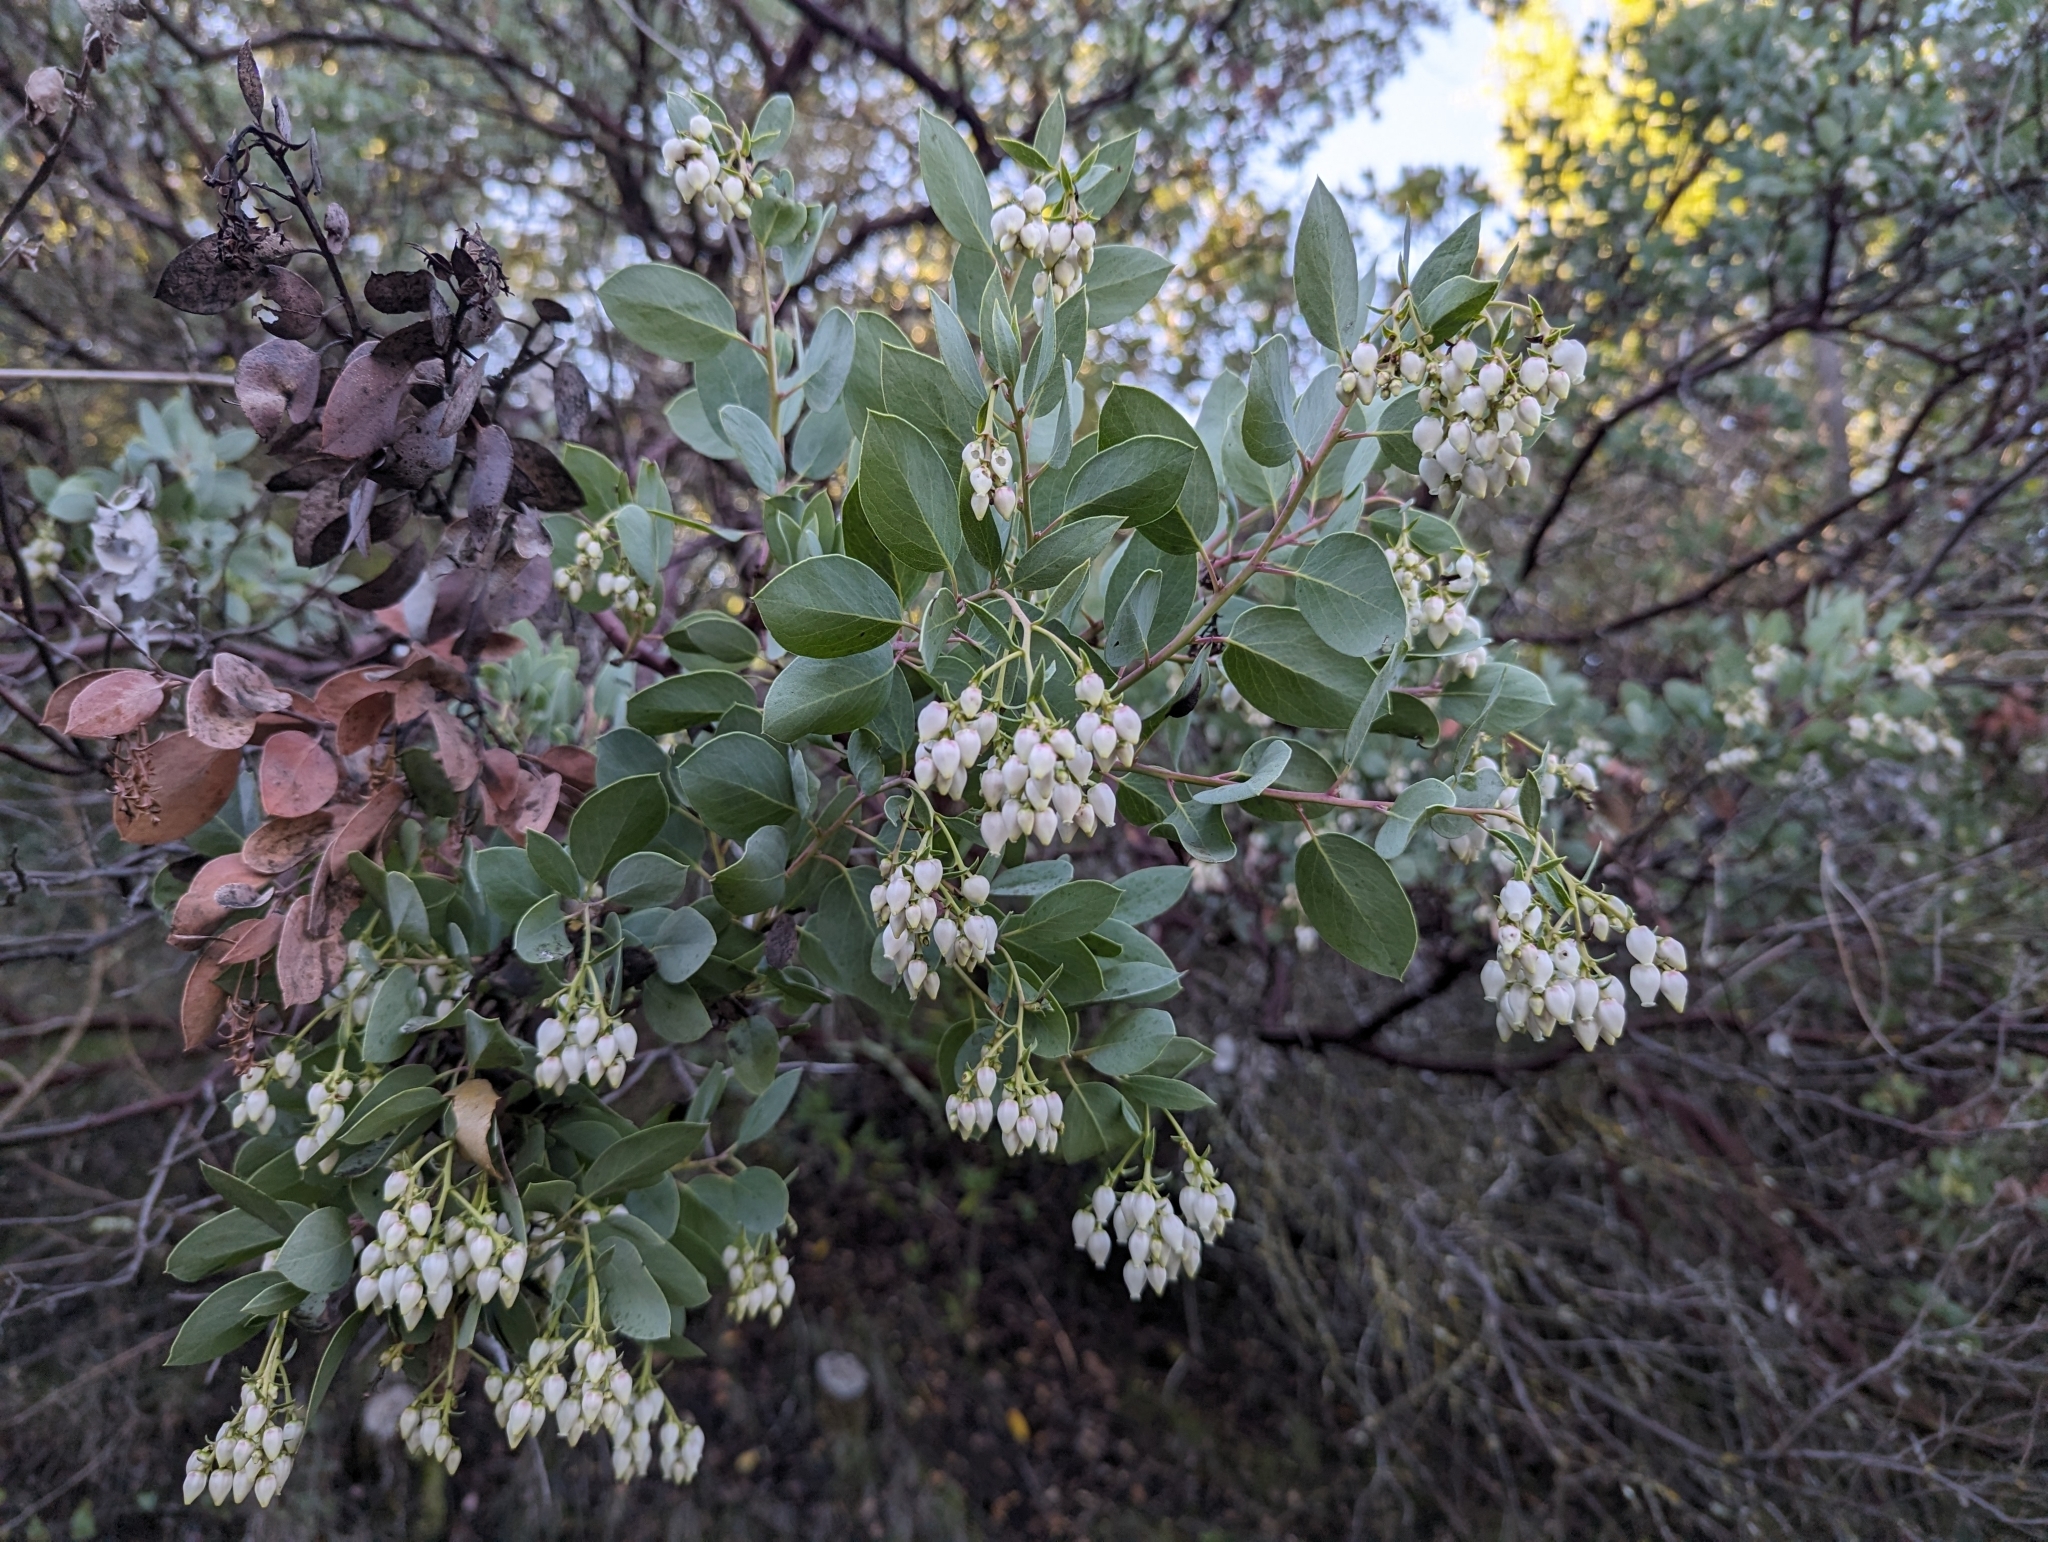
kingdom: Plantae
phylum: Tracheophyta
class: Magnoliopsida
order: Ericales
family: Ericaceae
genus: Arctostaphylos
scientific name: Arctostaphylos glauca
